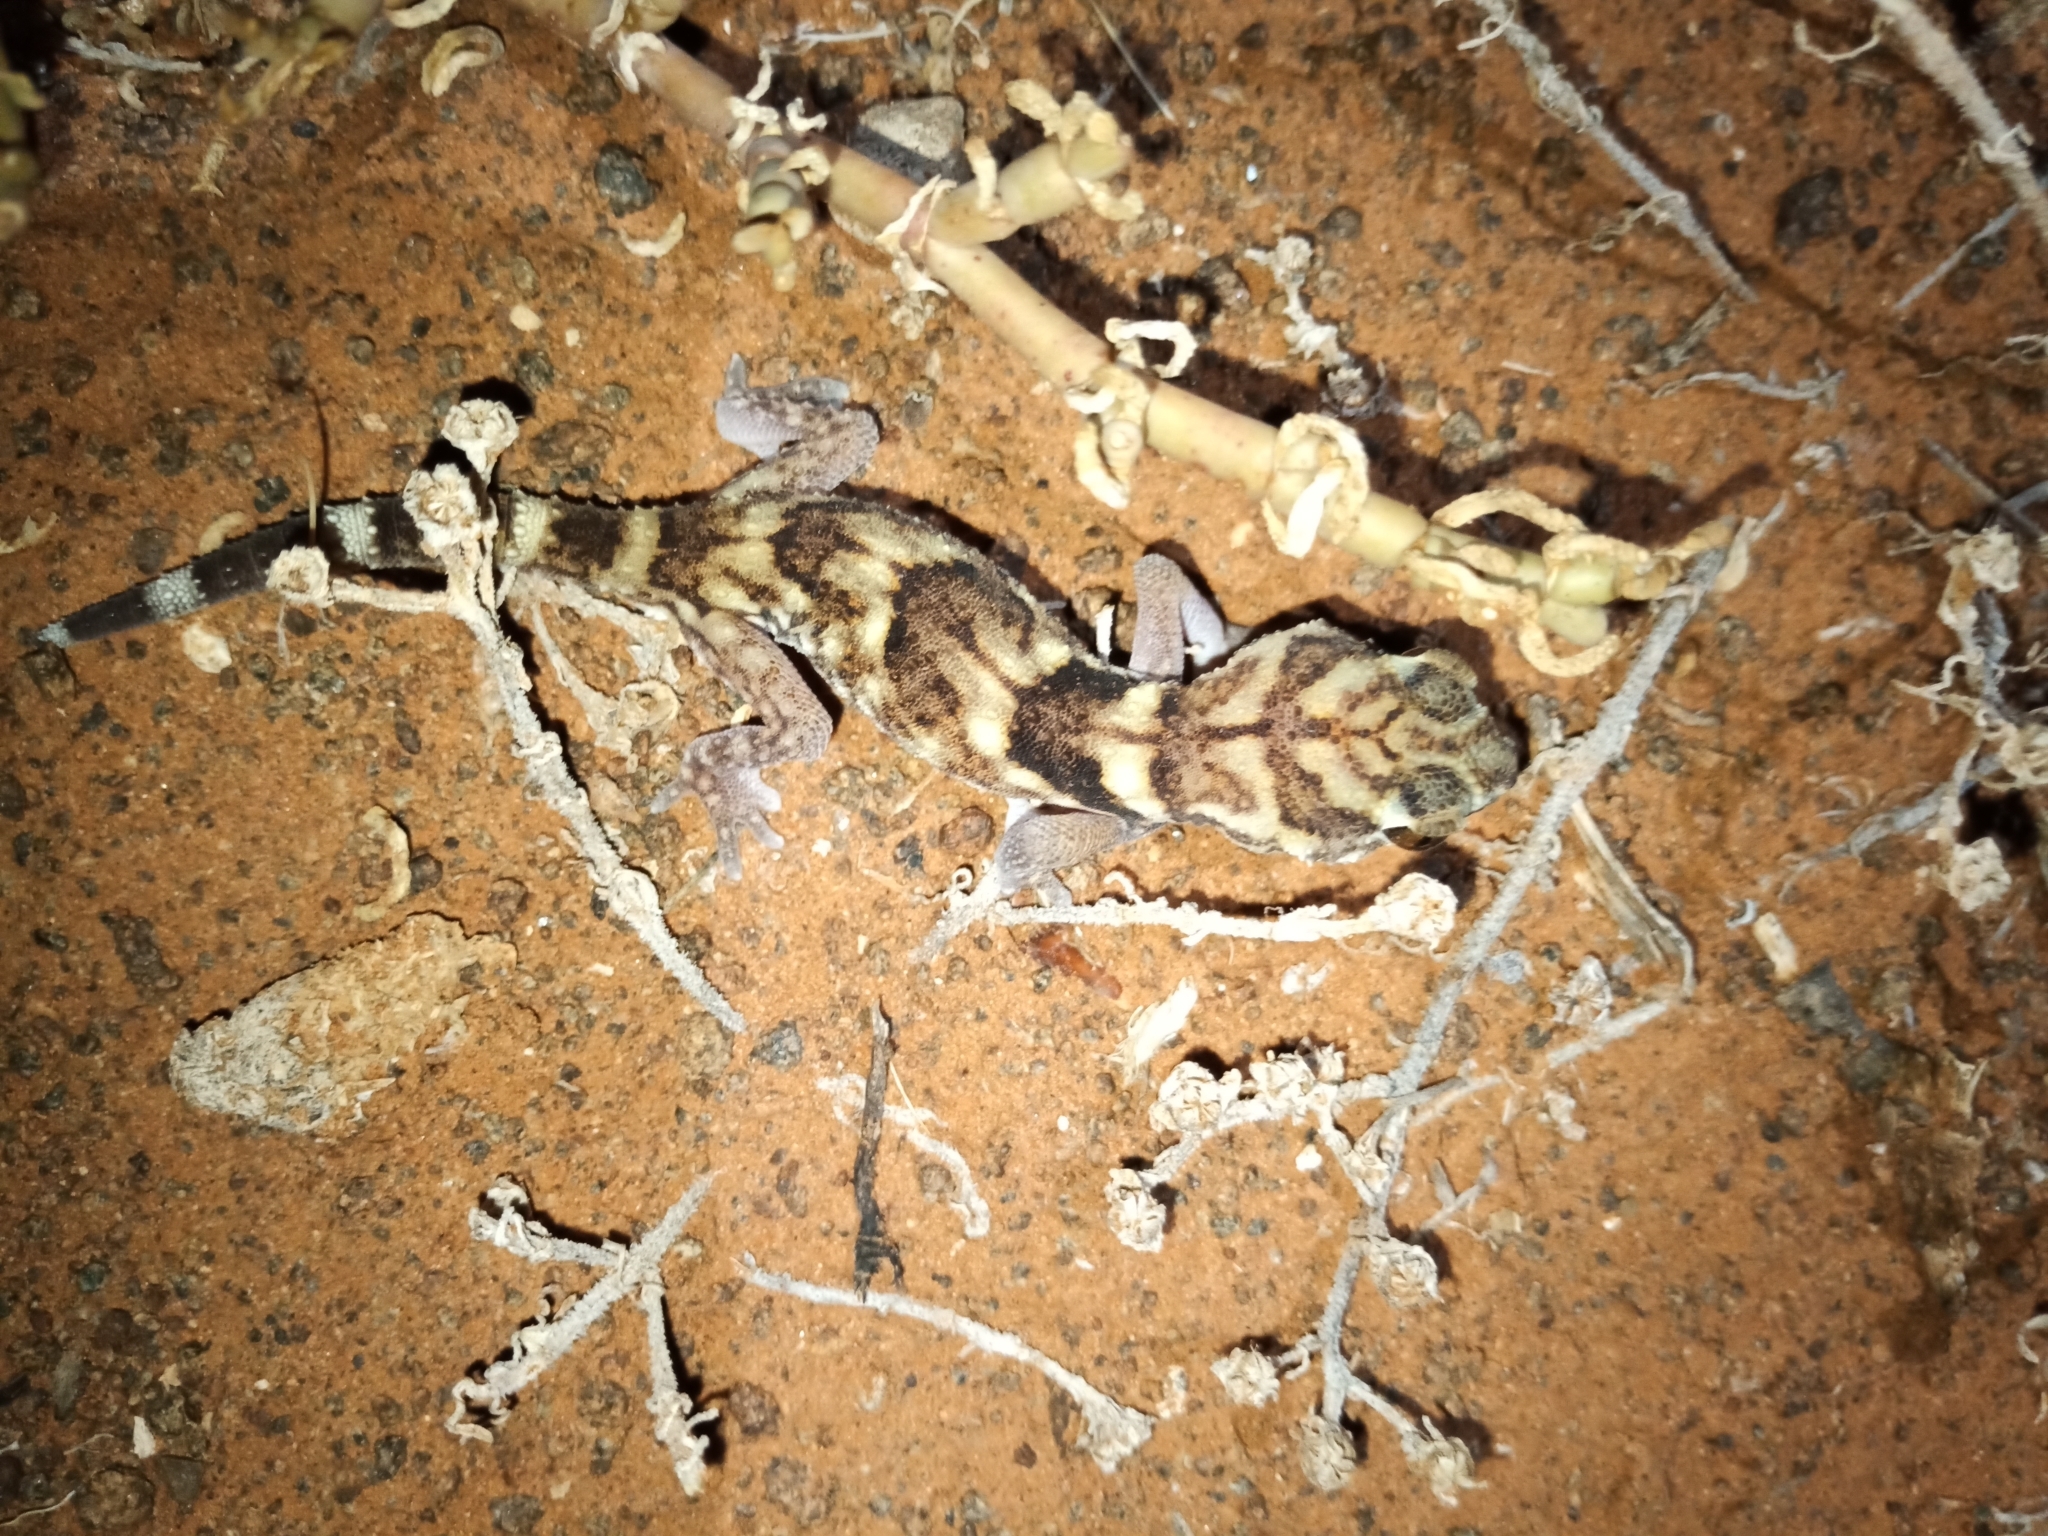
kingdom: Animalia
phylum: Chordata
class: Squamata
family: Gekkonidae
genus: Chondrodactylus
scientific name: Chondrodactylus angulifer
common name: Common giant ground gecko
